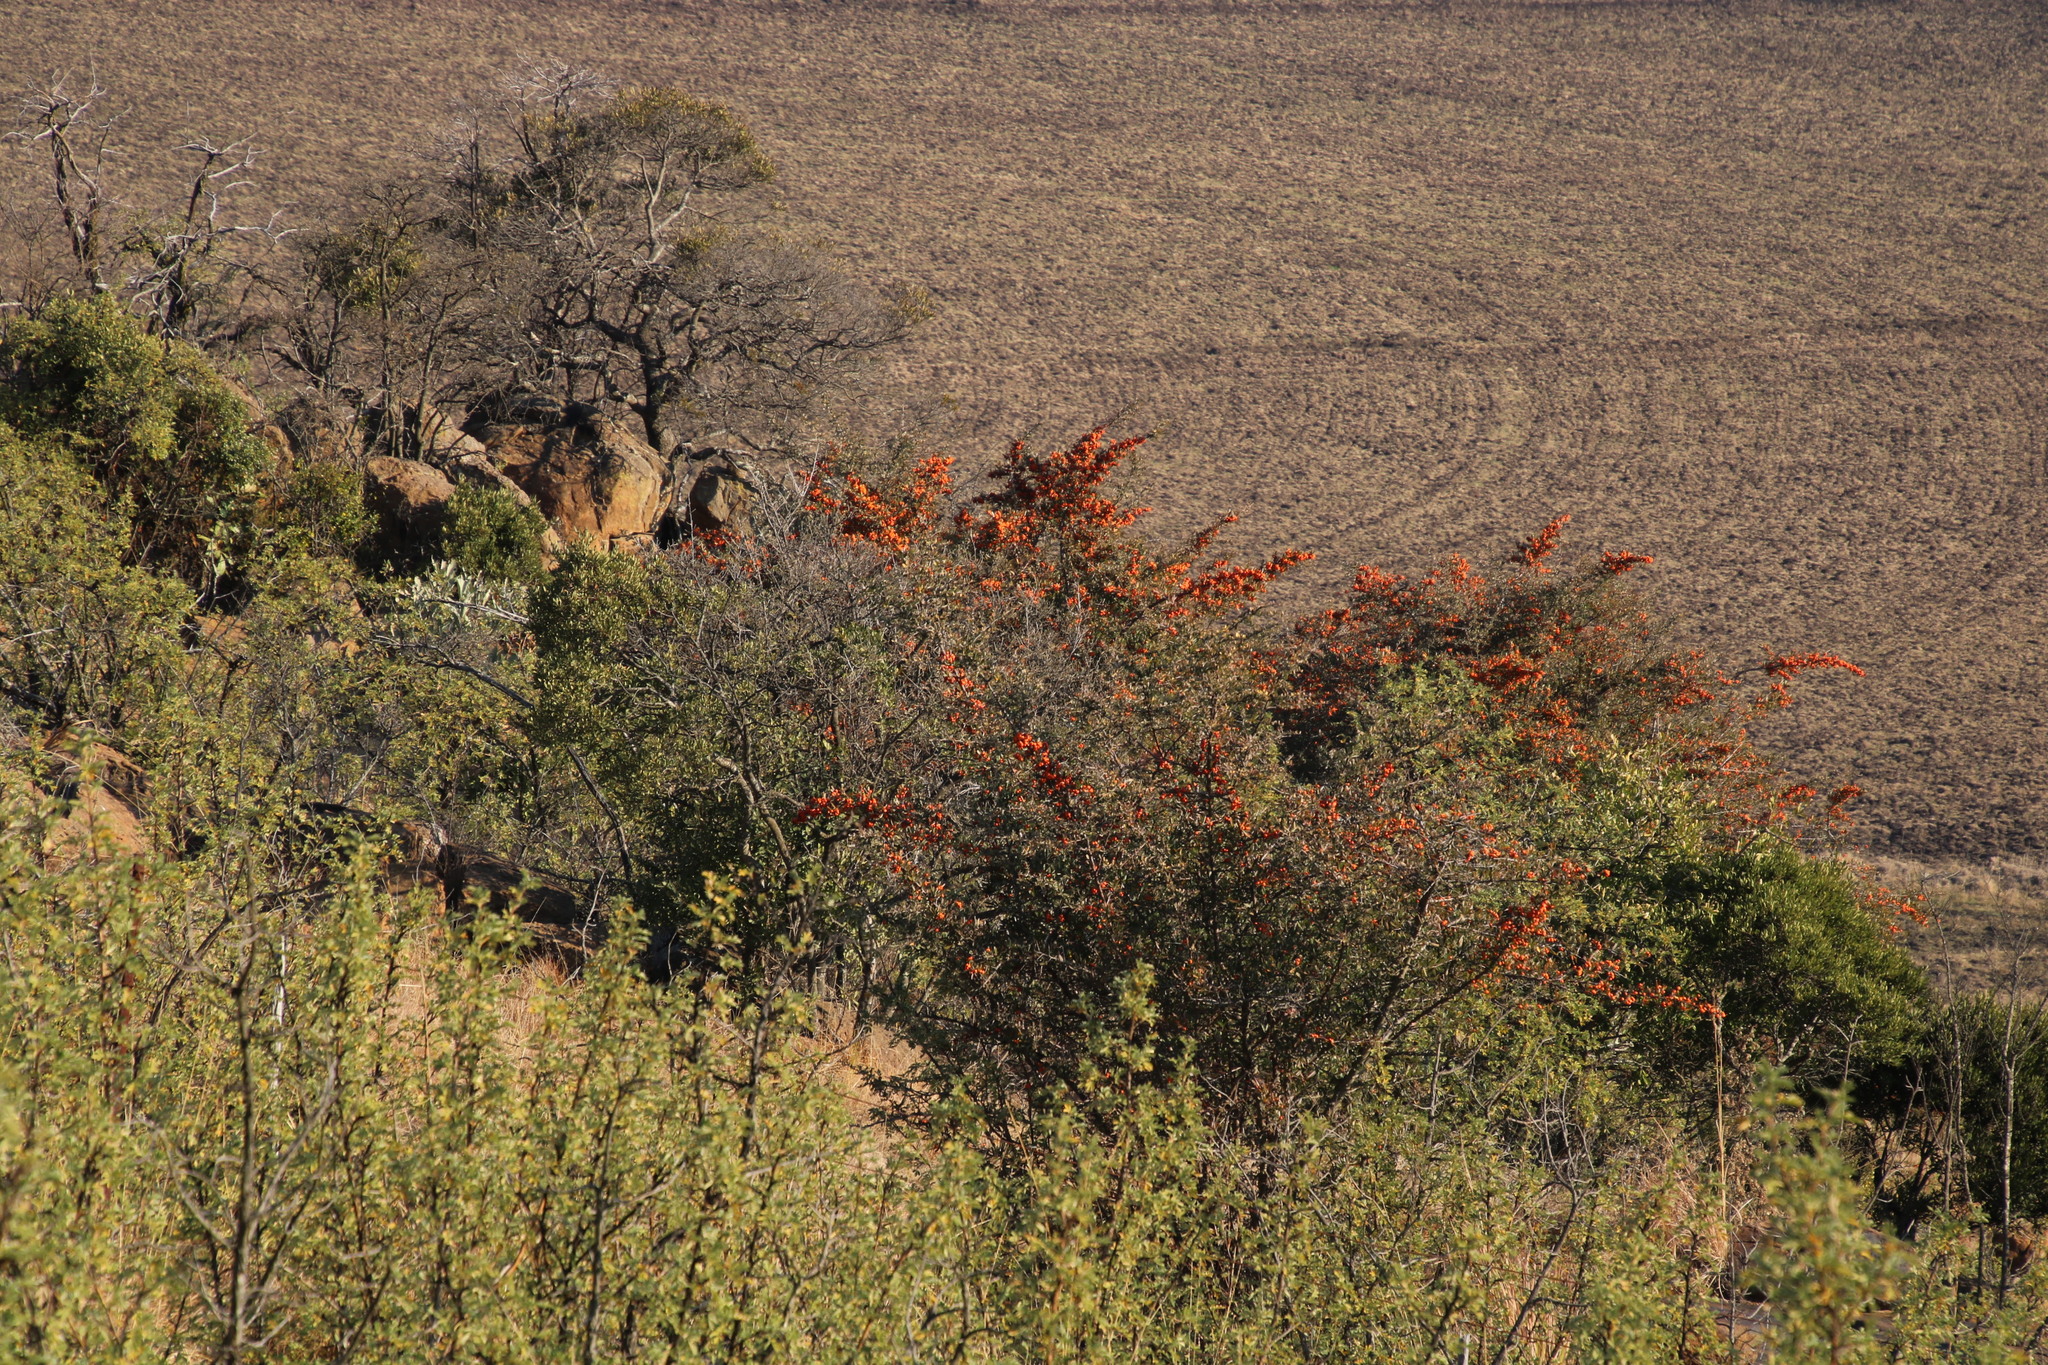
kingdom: Plantae
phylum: Tracheophyta
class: Magnoliopsida
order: Rosales
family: Rosaceae
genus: Pyracantha
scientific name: Pyracantha angustifolia
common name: Narrowleaf firethorn
